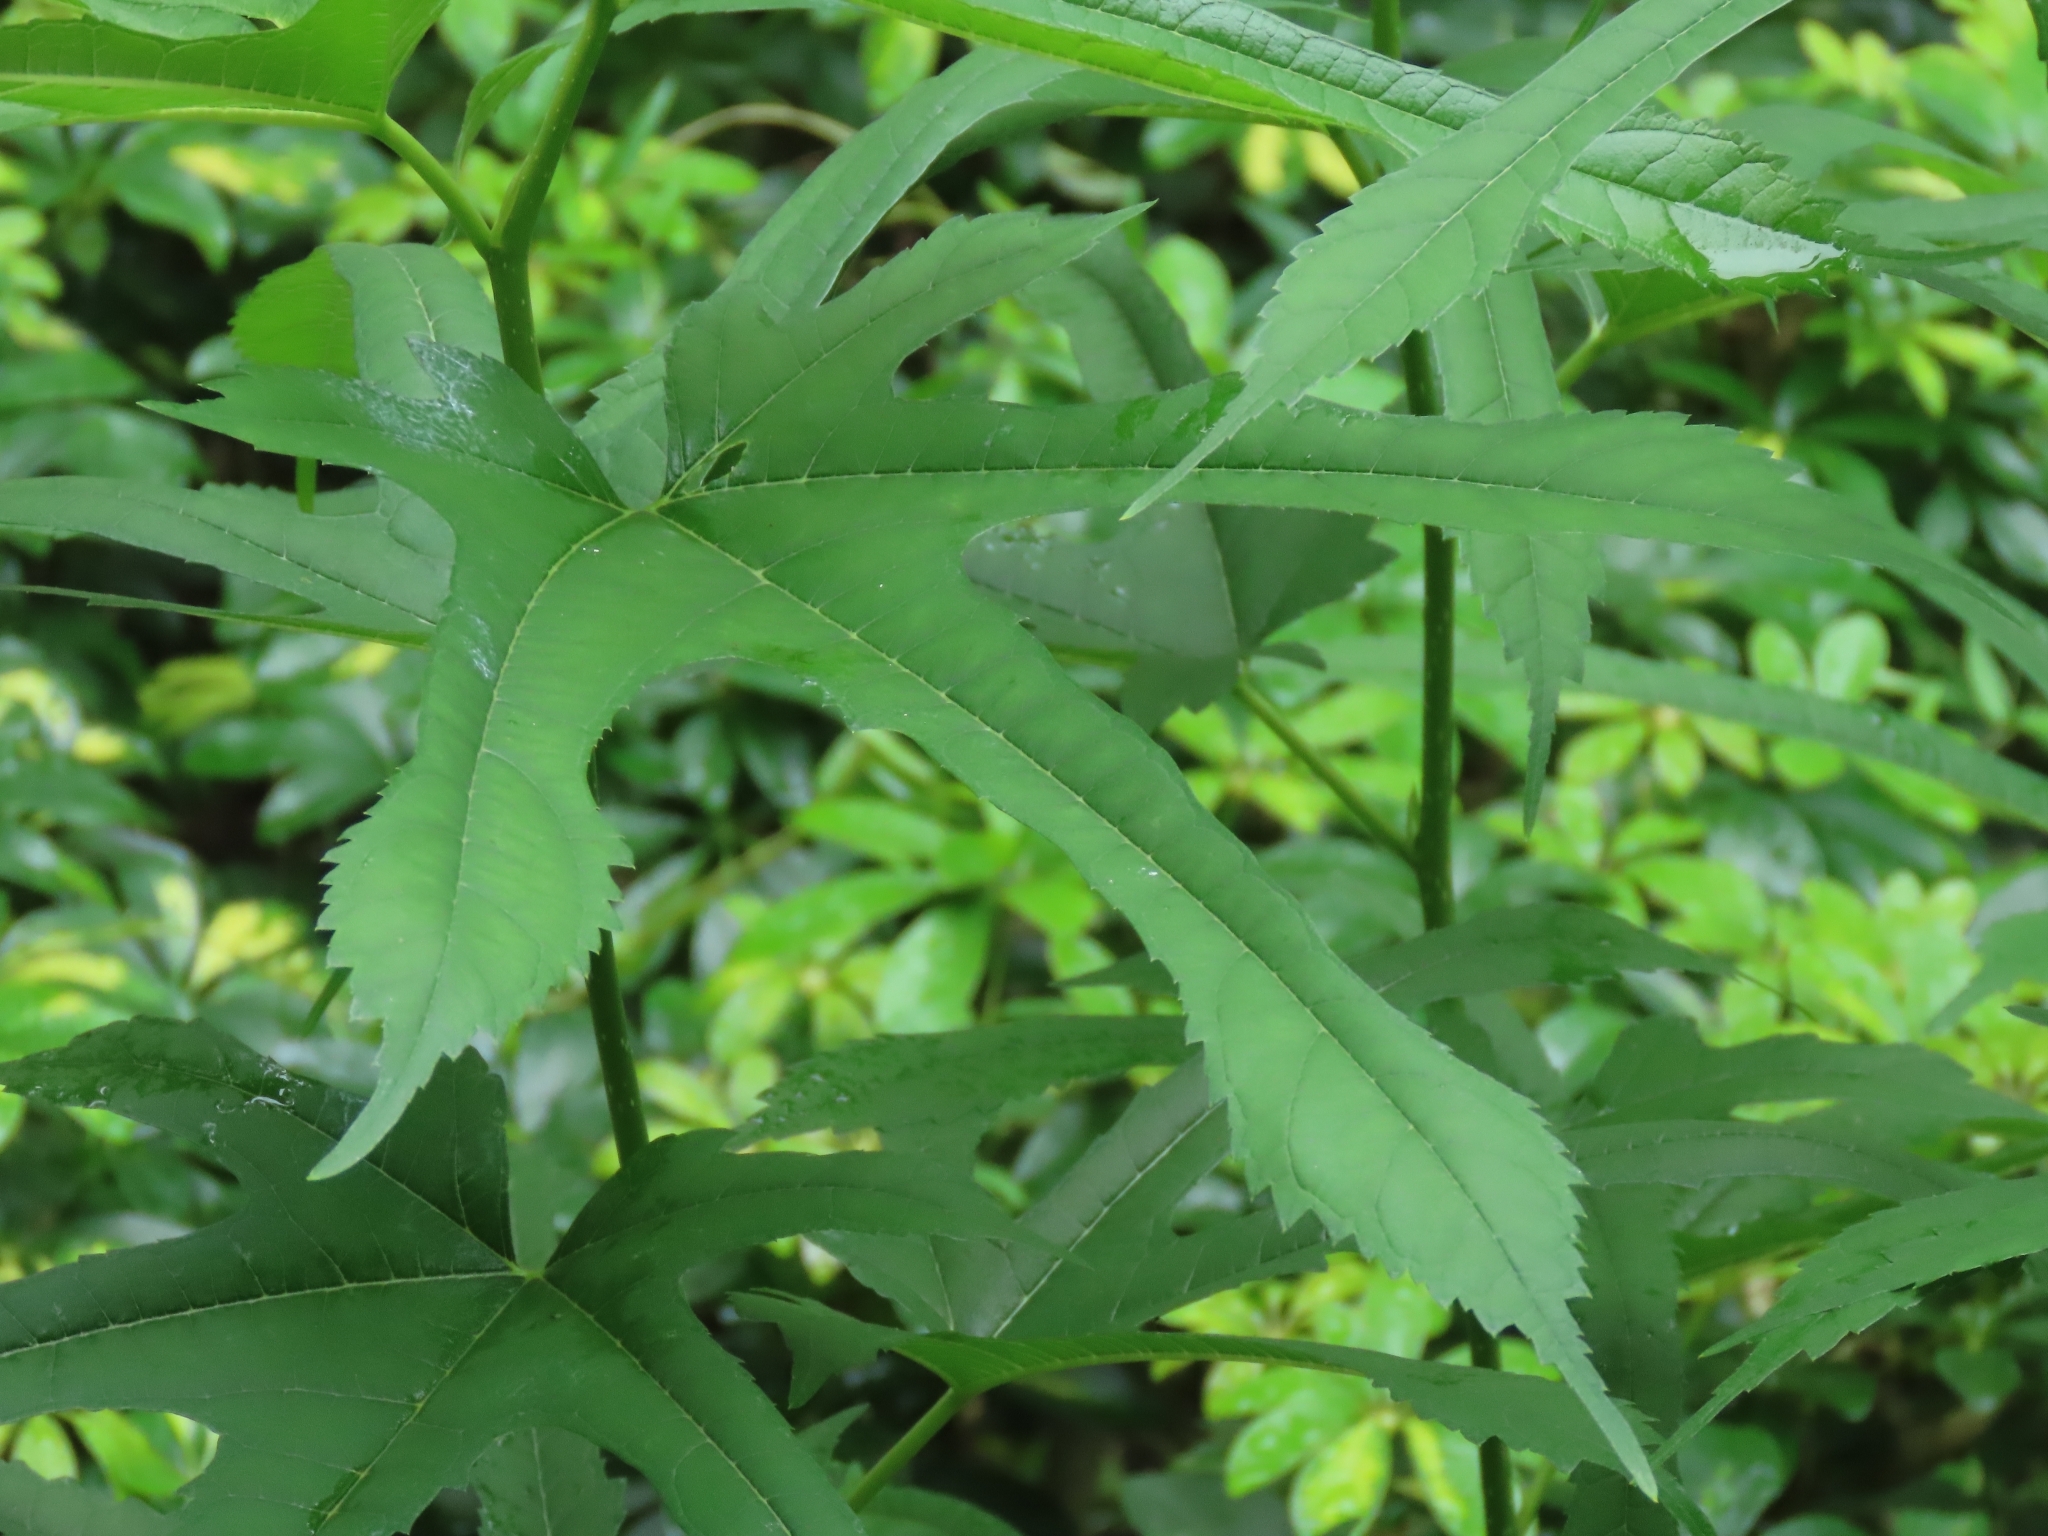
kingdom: Plantae
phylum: Tracheophyta
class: Magnoliopsida
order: Rosales
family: Moraceae
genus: Morus
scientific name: Morus indica
